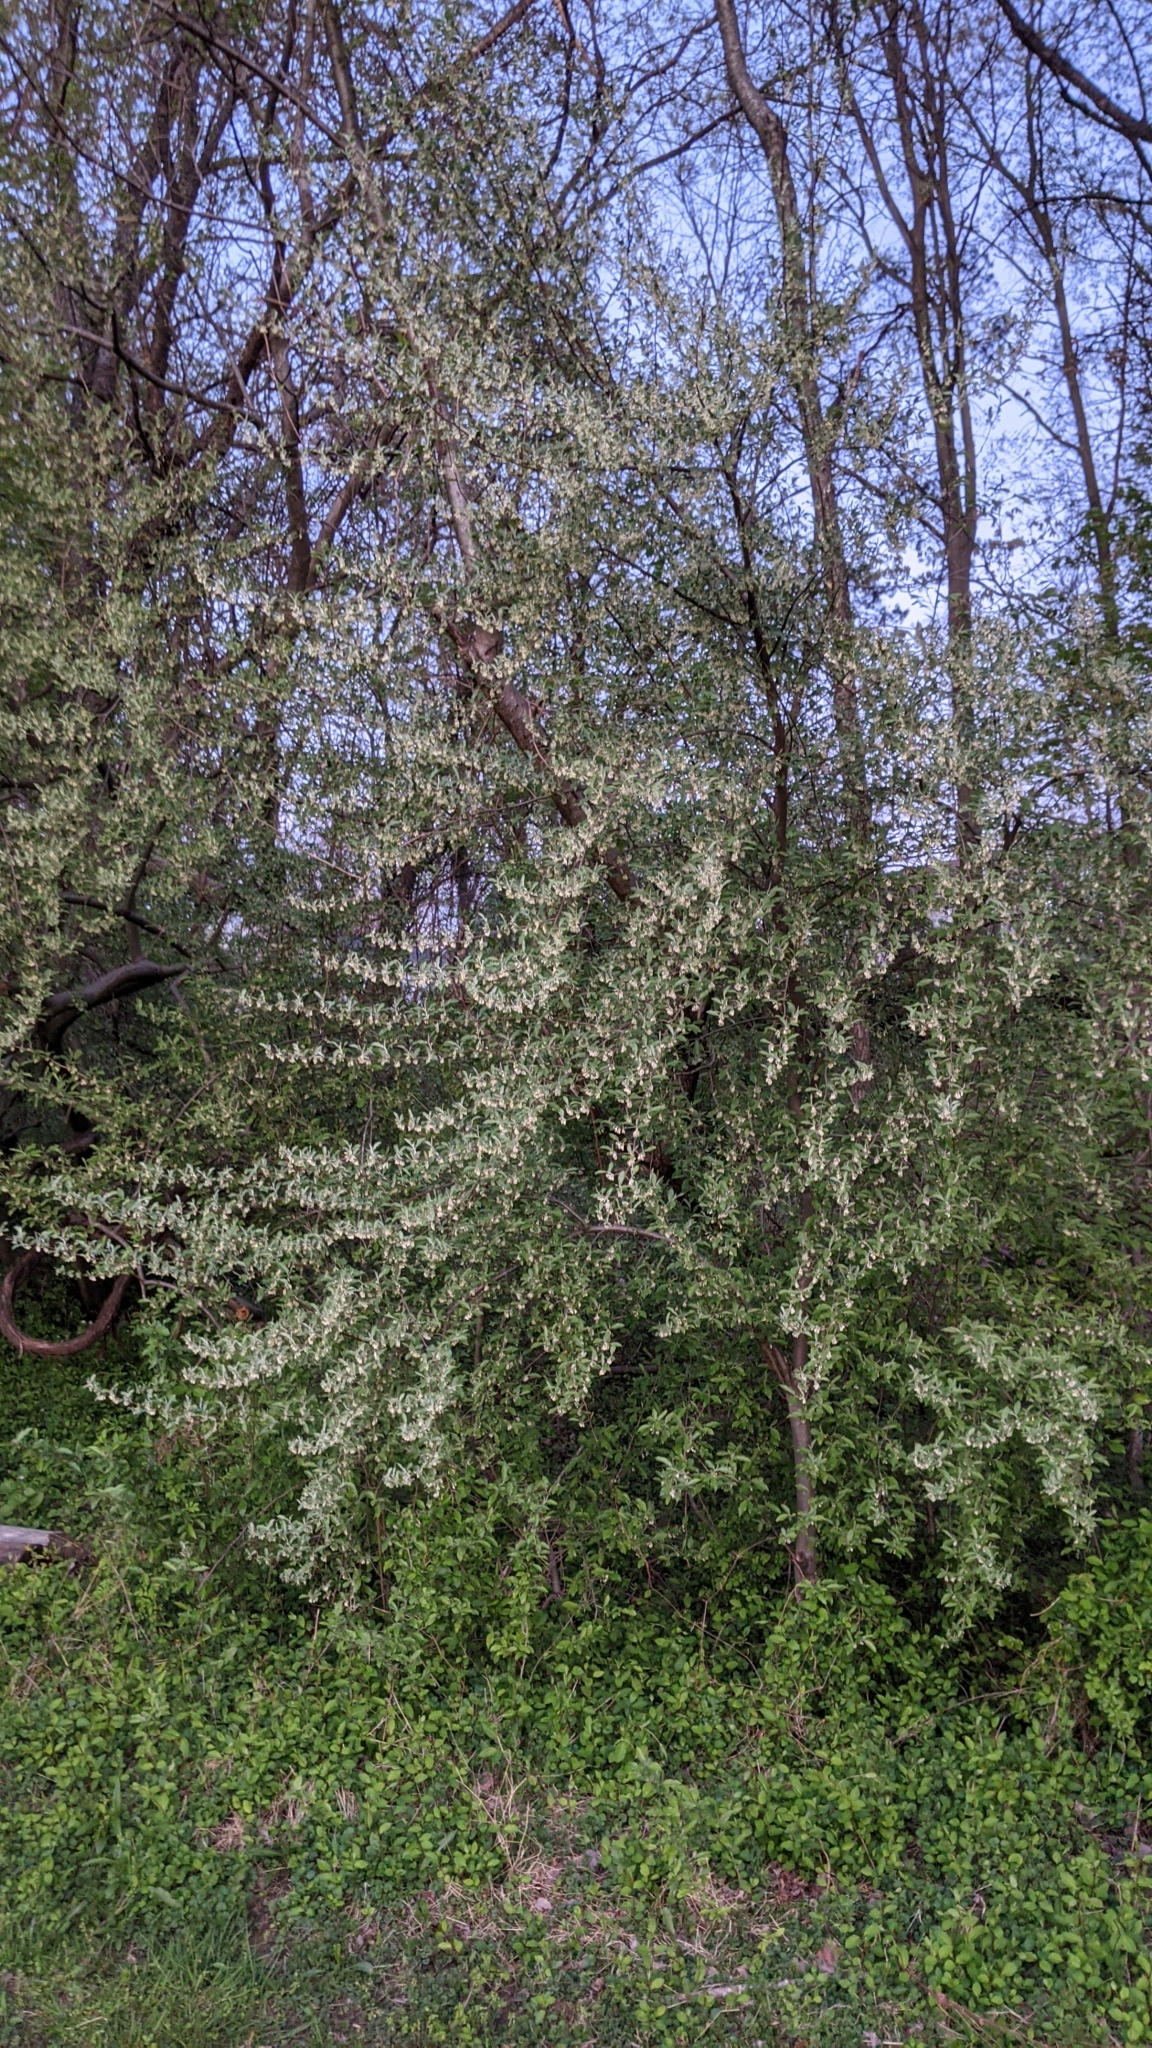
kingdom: Plantae
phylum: Tracheophyta
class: Magnoliopsida
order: Rosales
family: Elaeagnaceae
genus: Elaeagnus
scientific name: Elaeagnus umbellata
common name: Autumn olive
